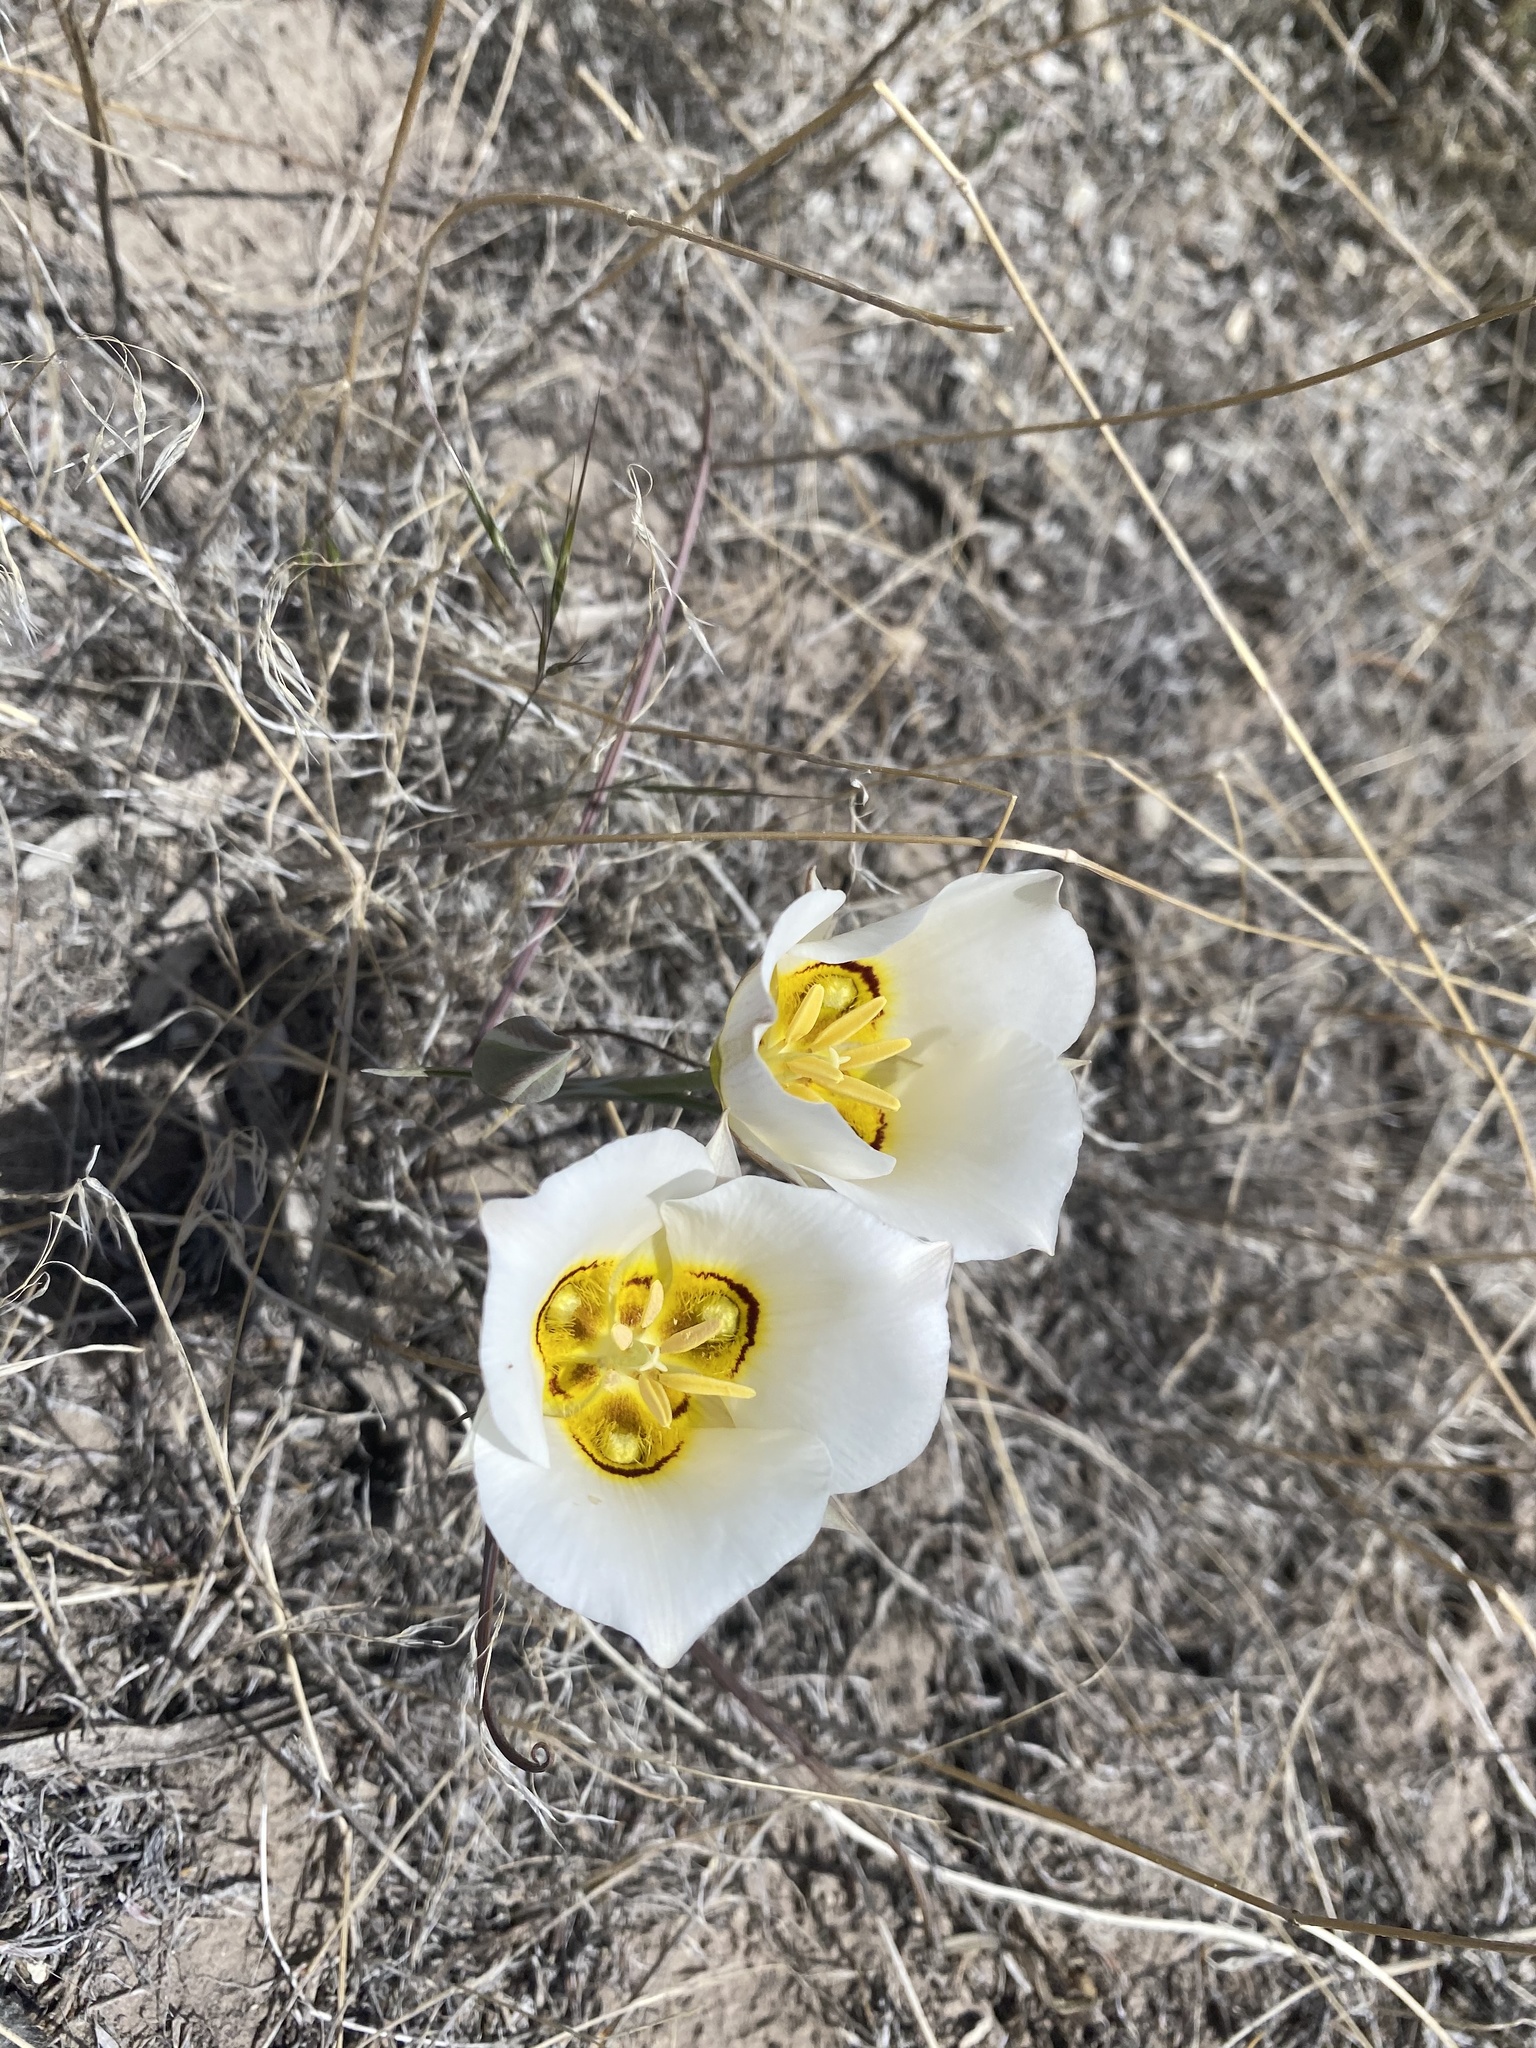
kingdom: Plantae
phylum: Tracheophyta
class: Liliopsida
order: Liliales
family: Liliaceae
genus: Calochortus
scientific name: Calochortus nuttallii
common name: Sego-lily
